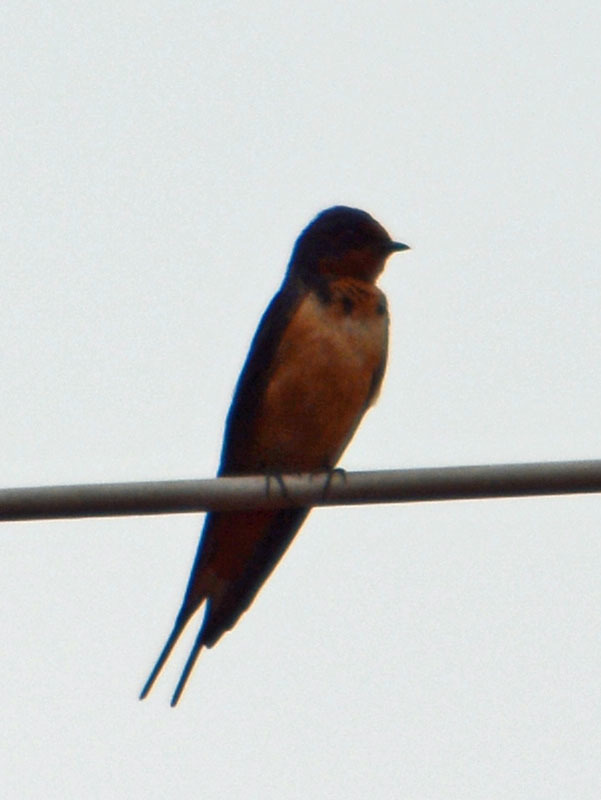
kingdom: Animalia
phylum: Chordata
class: Aves
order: Passeriformes
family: Hirundinidae
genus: Hirundo
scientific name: Hirundo rustica
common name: Barn swallow
